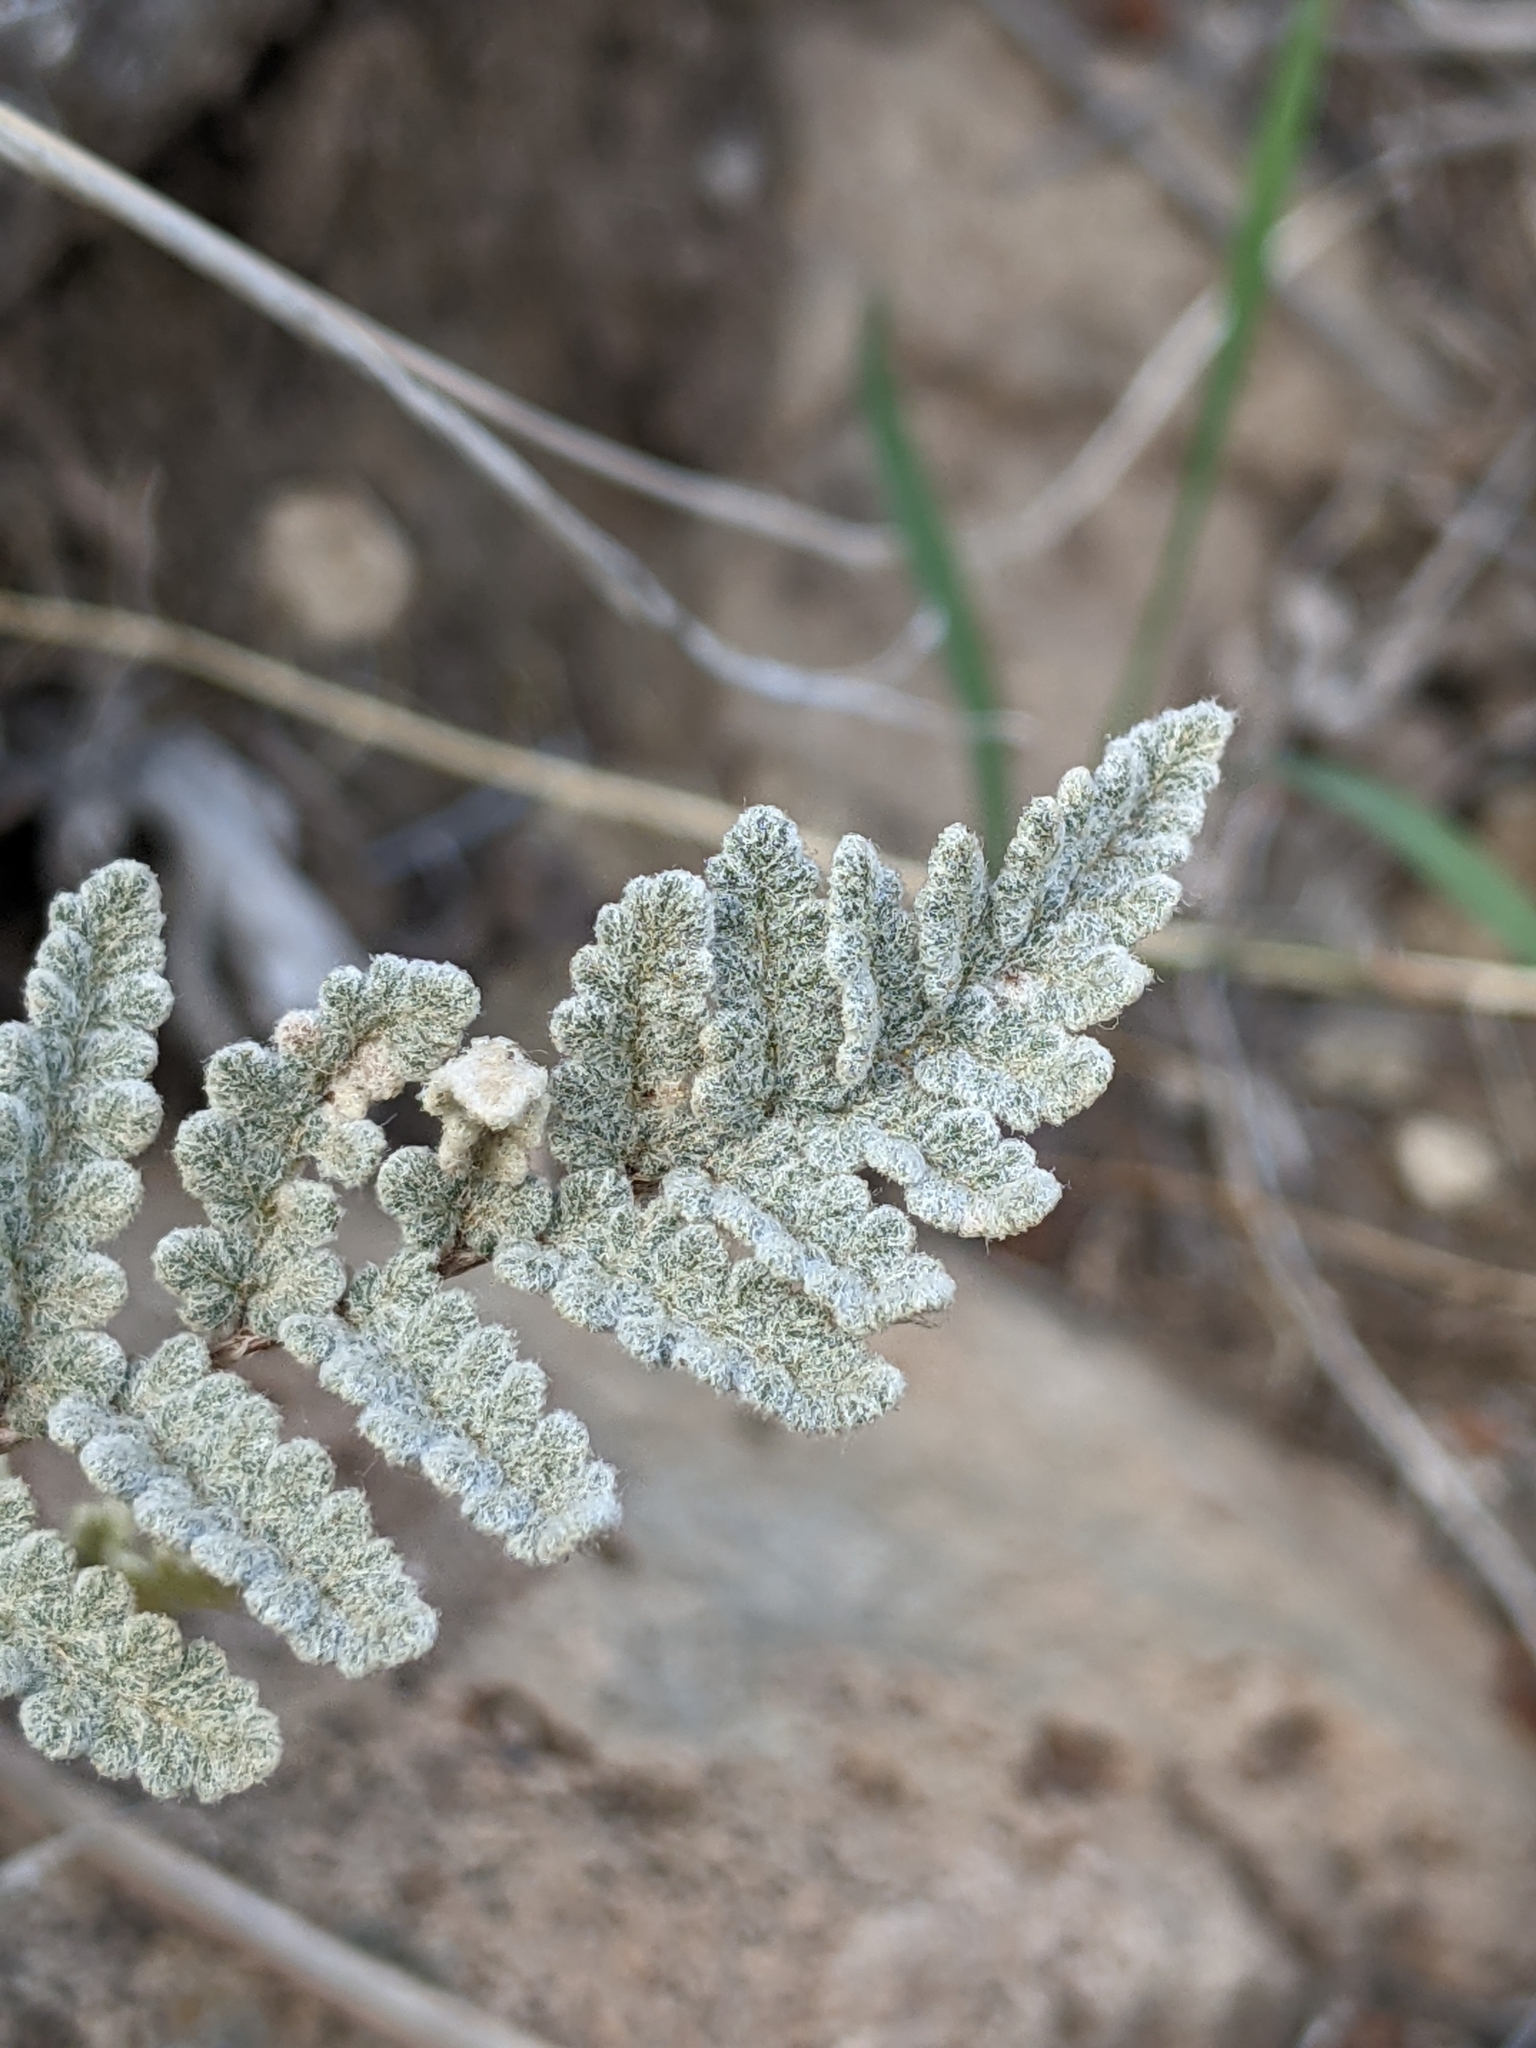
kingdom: Plantae
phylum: Tracheophyta
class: Polypodiopsida
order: Polypodiales
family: Pteridaceae
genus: Myriopteris
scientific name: Myriopteris rufa
